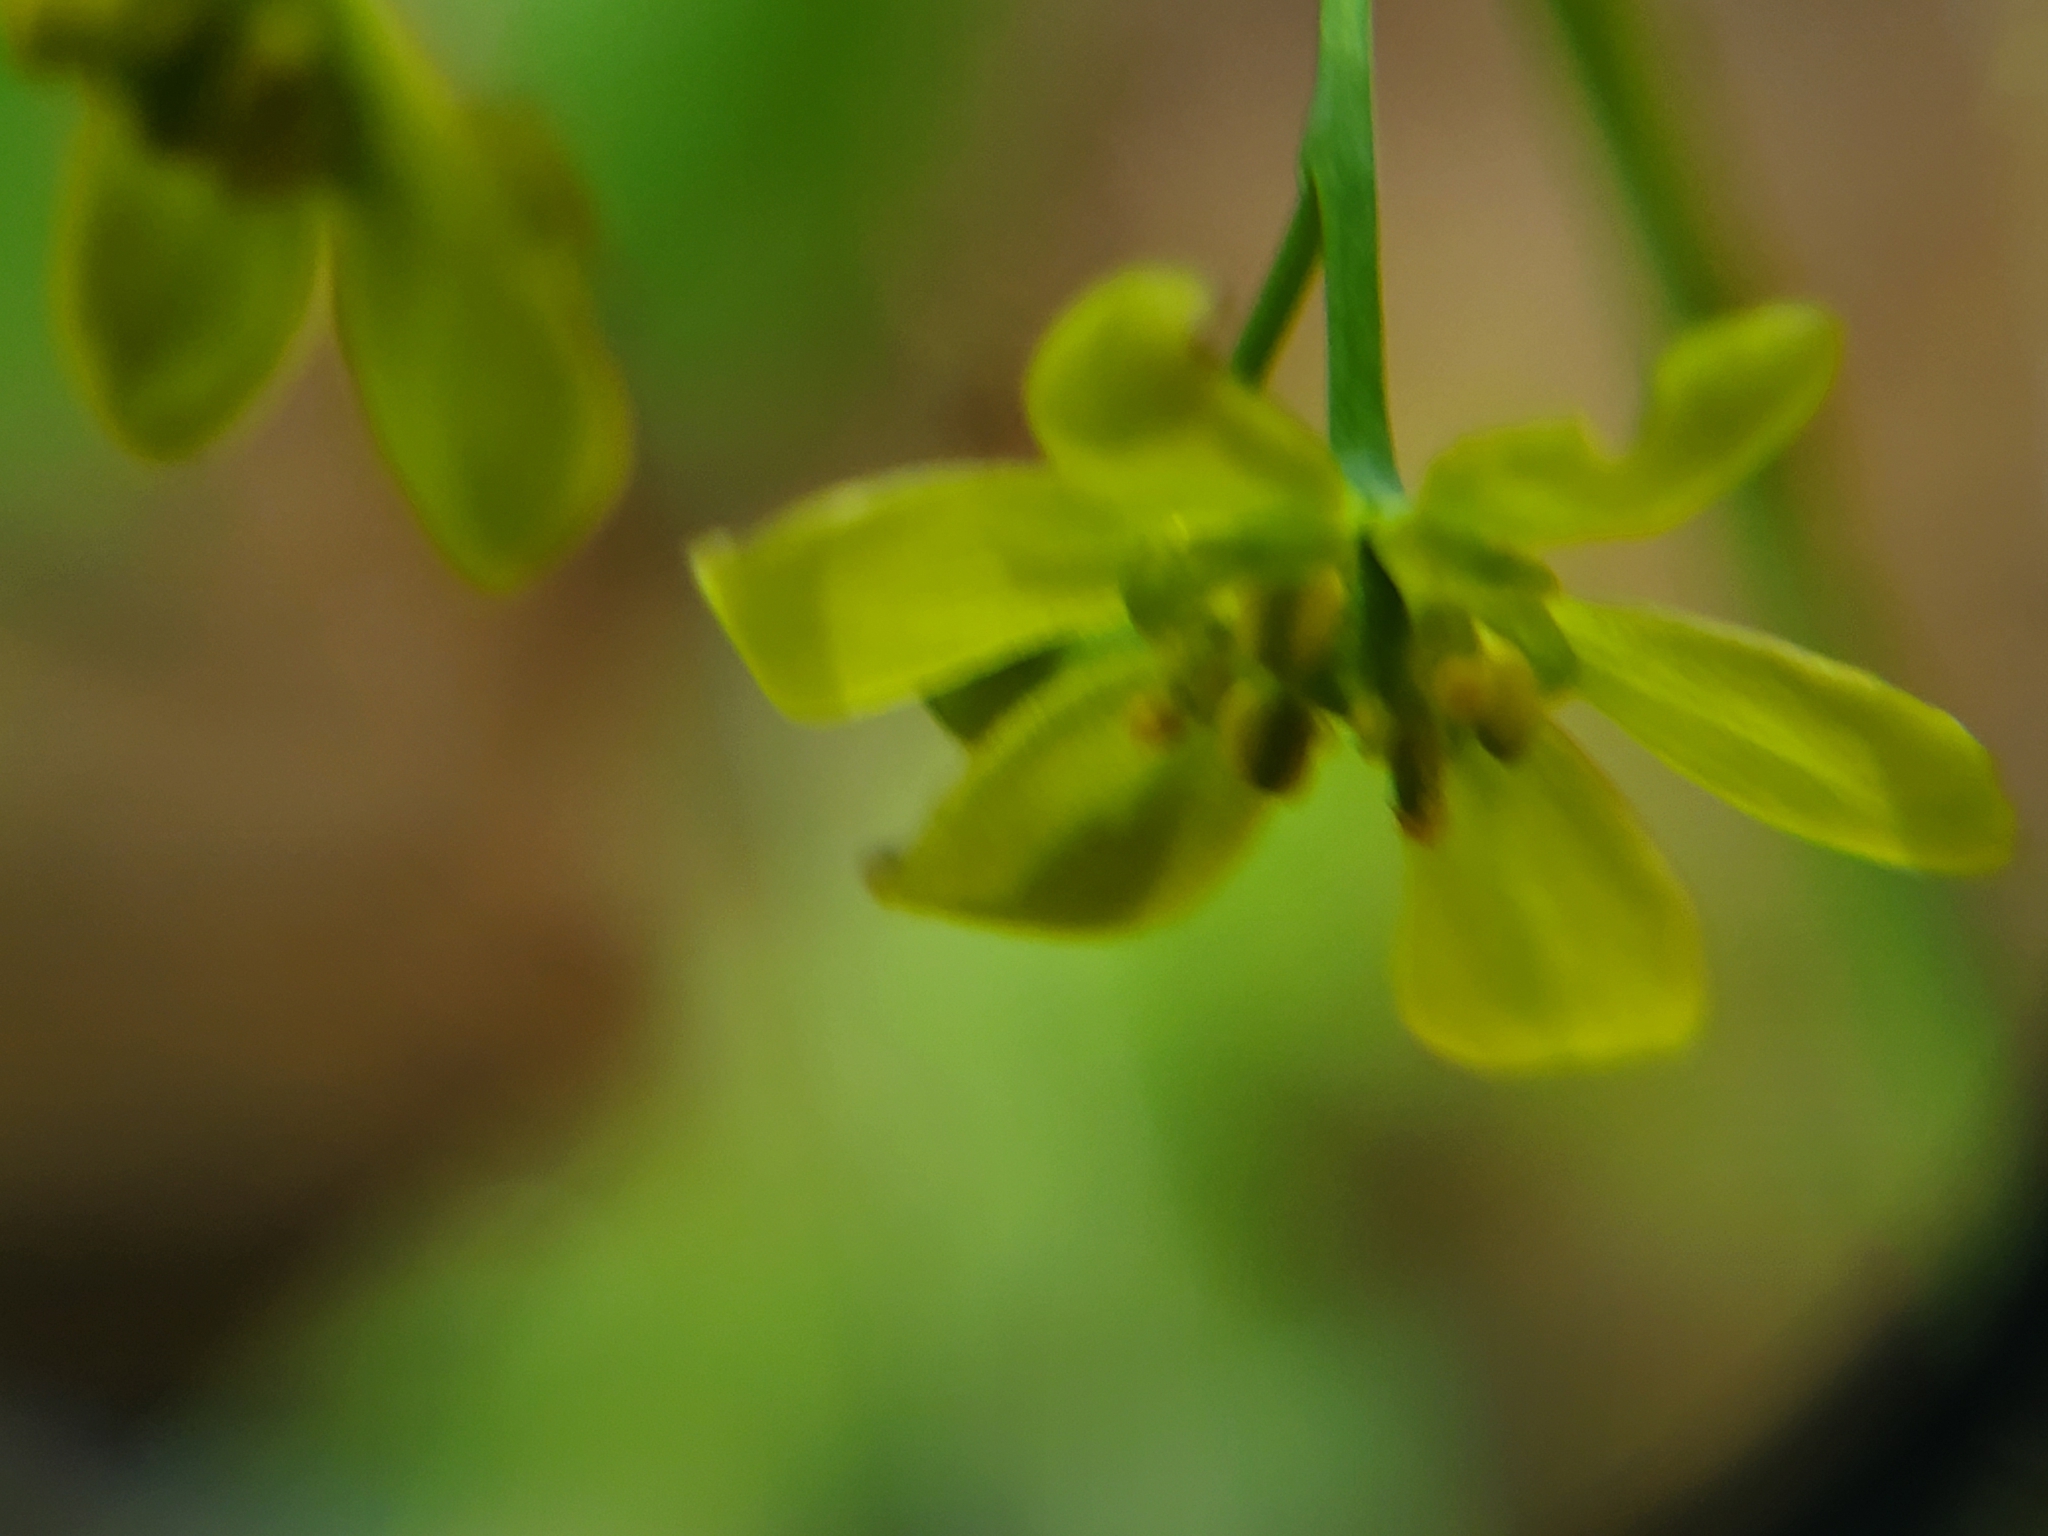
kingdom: Plantae
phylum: Tracheophyta
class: Magnoliopsida
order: Ranunculales
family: Berberidaceae
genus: Caulophyllum
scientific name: Caulophyllum thalictroides
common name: Blue cohosh
